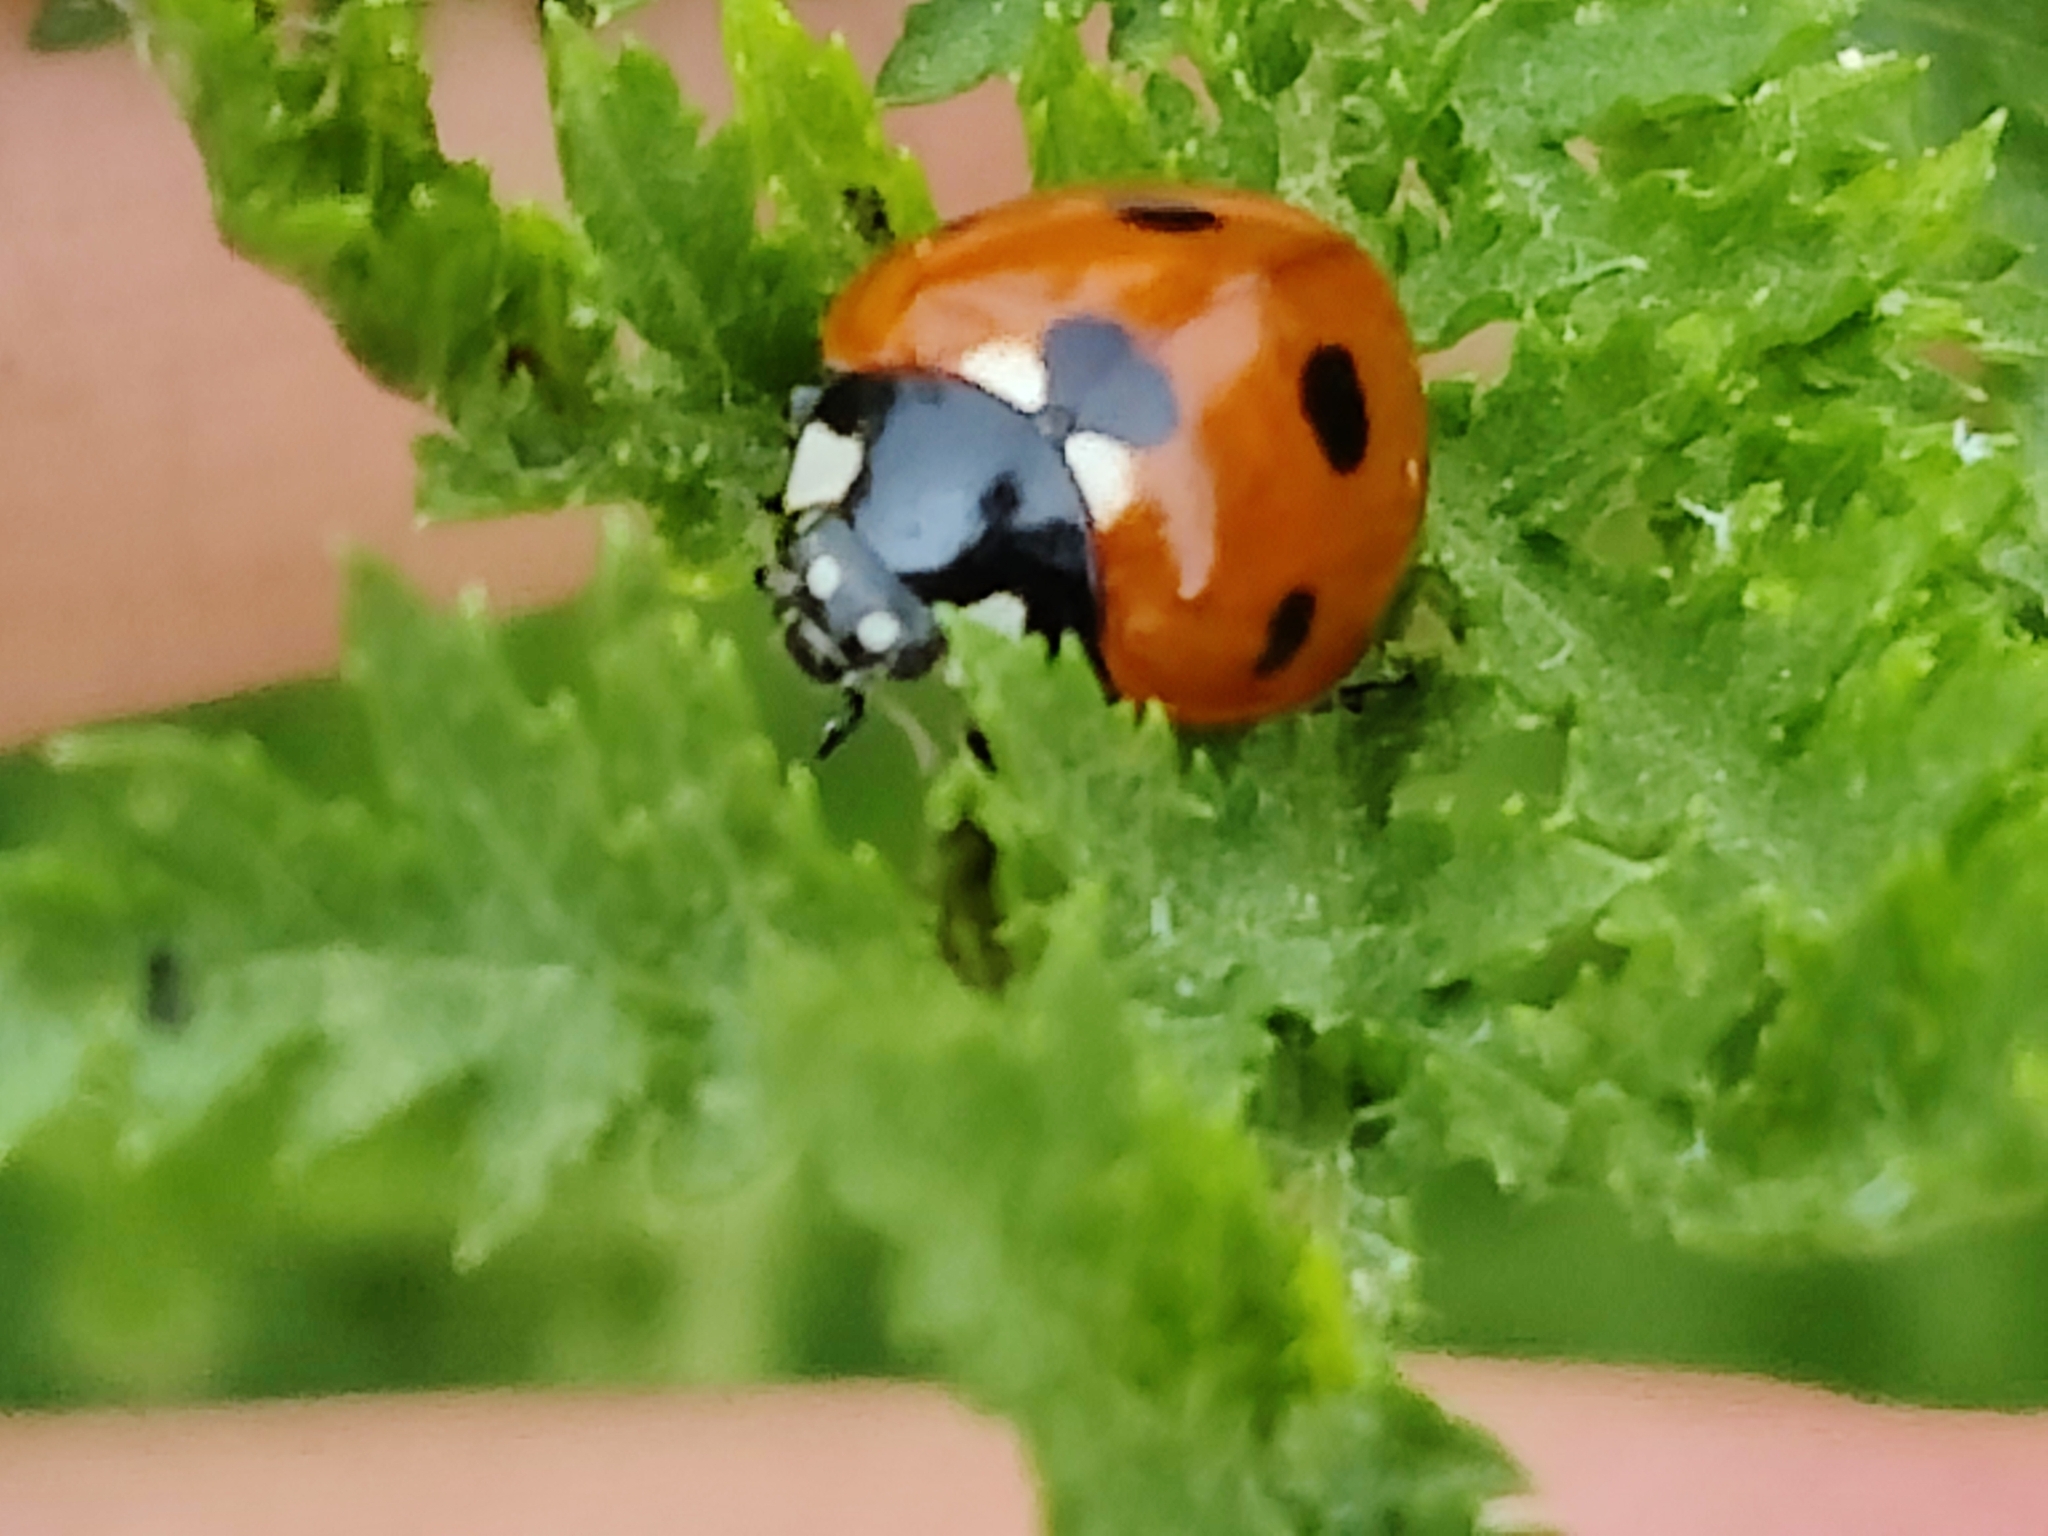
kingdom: Animalia
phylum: Arthropoda
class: Insecta
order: Coleoptera
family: Coccinellidae
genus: Coccinella
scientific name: Coccinella septempunctata
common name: Sevenspotted lady beetle
